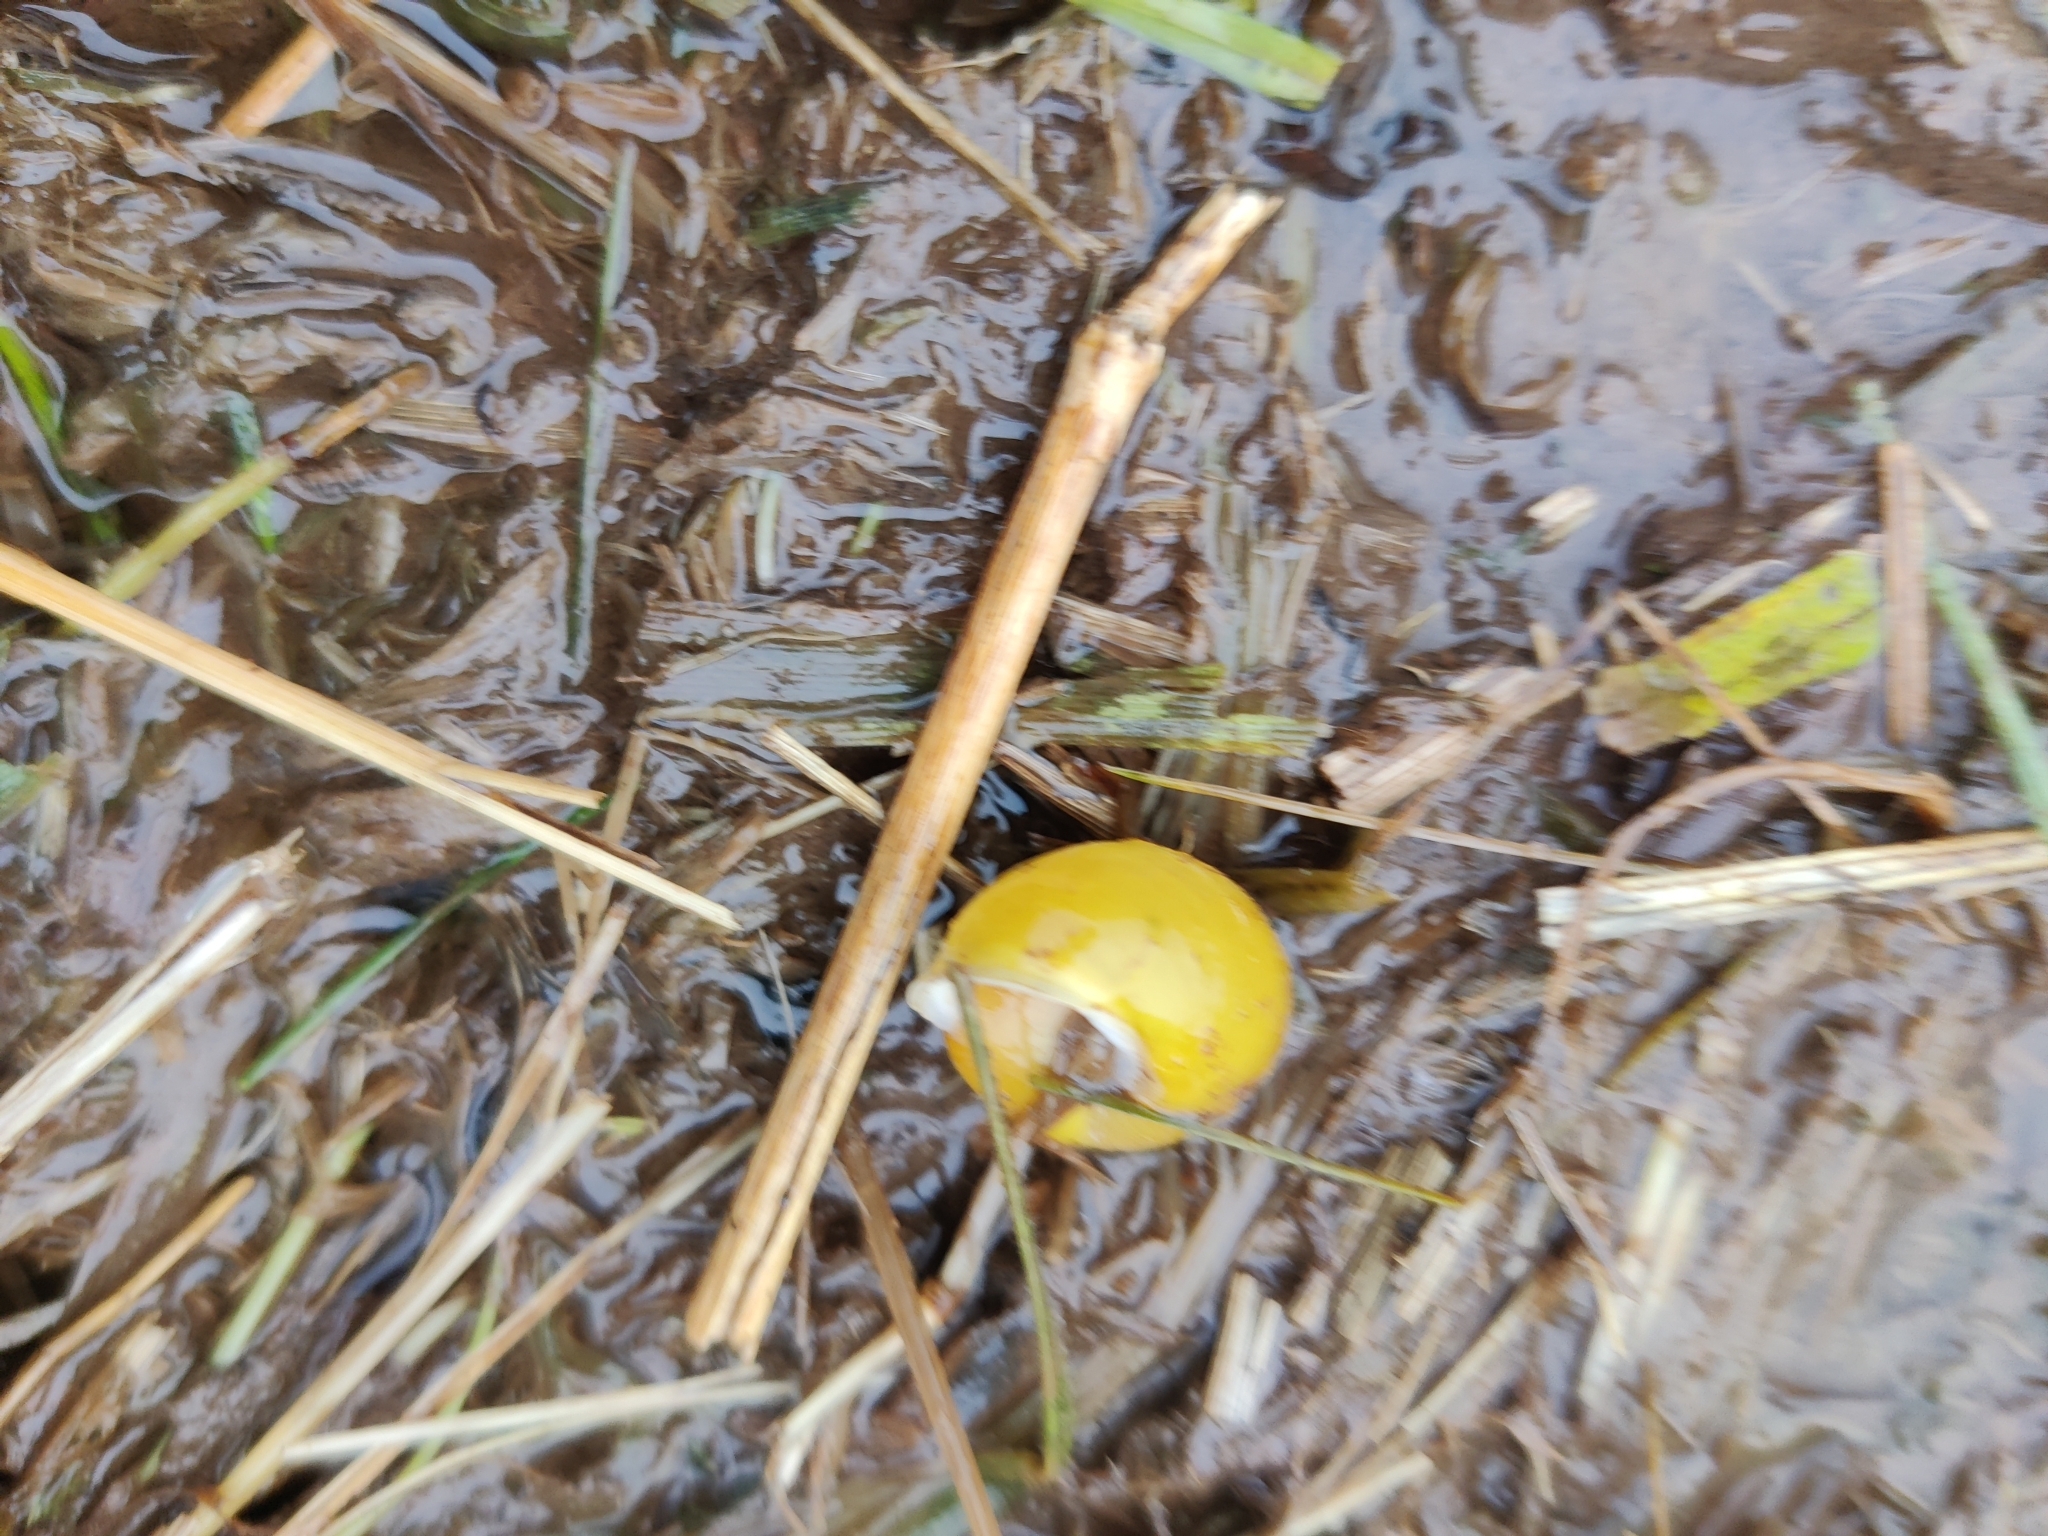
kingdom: Animalia
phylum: Mollusca
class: Gastropoda
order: Stylommatophora
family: Helicidae
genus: Cepaea
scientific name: Cepaea hortensis
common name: White-lip gardensnail
